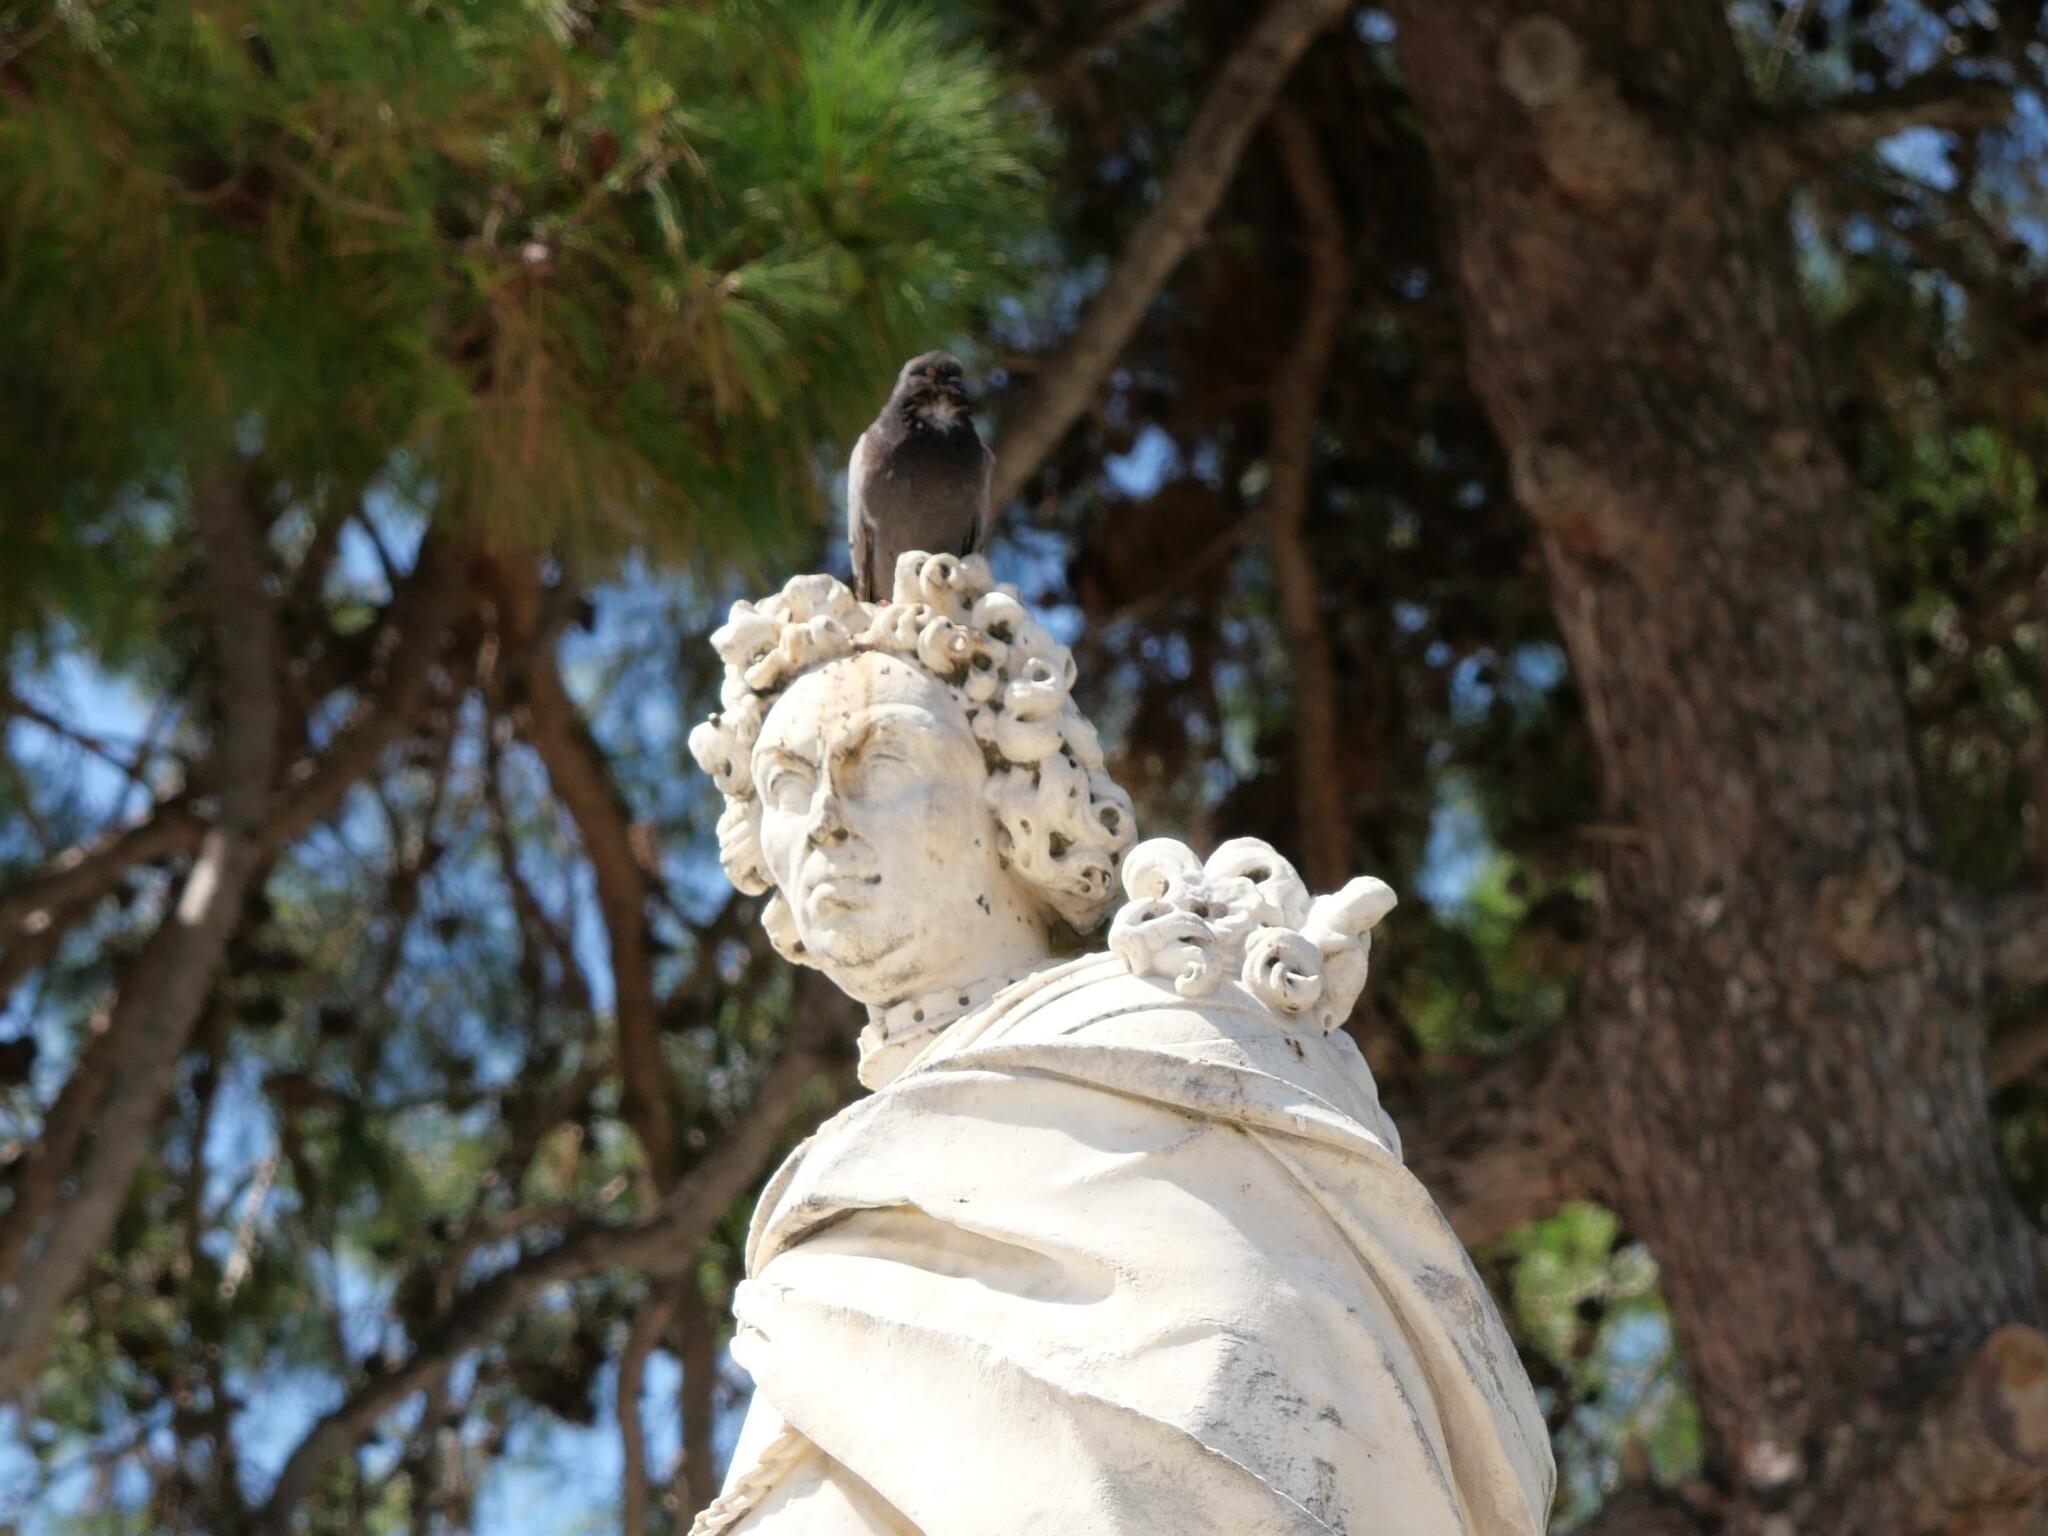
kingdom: Animalia
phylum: Chordata
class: Aves
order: Columbiformes
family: Columbidae
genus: Columba
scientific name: Columba livia
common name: Rock pigeon
